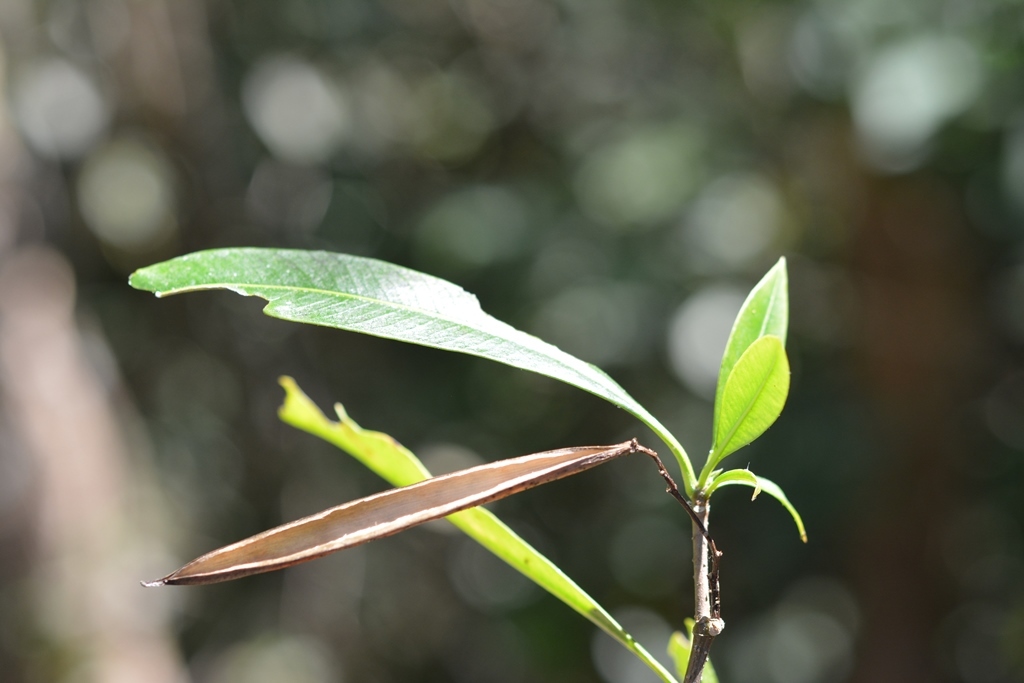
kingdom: Plantae
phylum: Tracheophyta
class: Magnoliopsida
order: Gentianales
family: Apocynaceae
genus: Tonduzia
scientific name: Tonduzia longifolia
